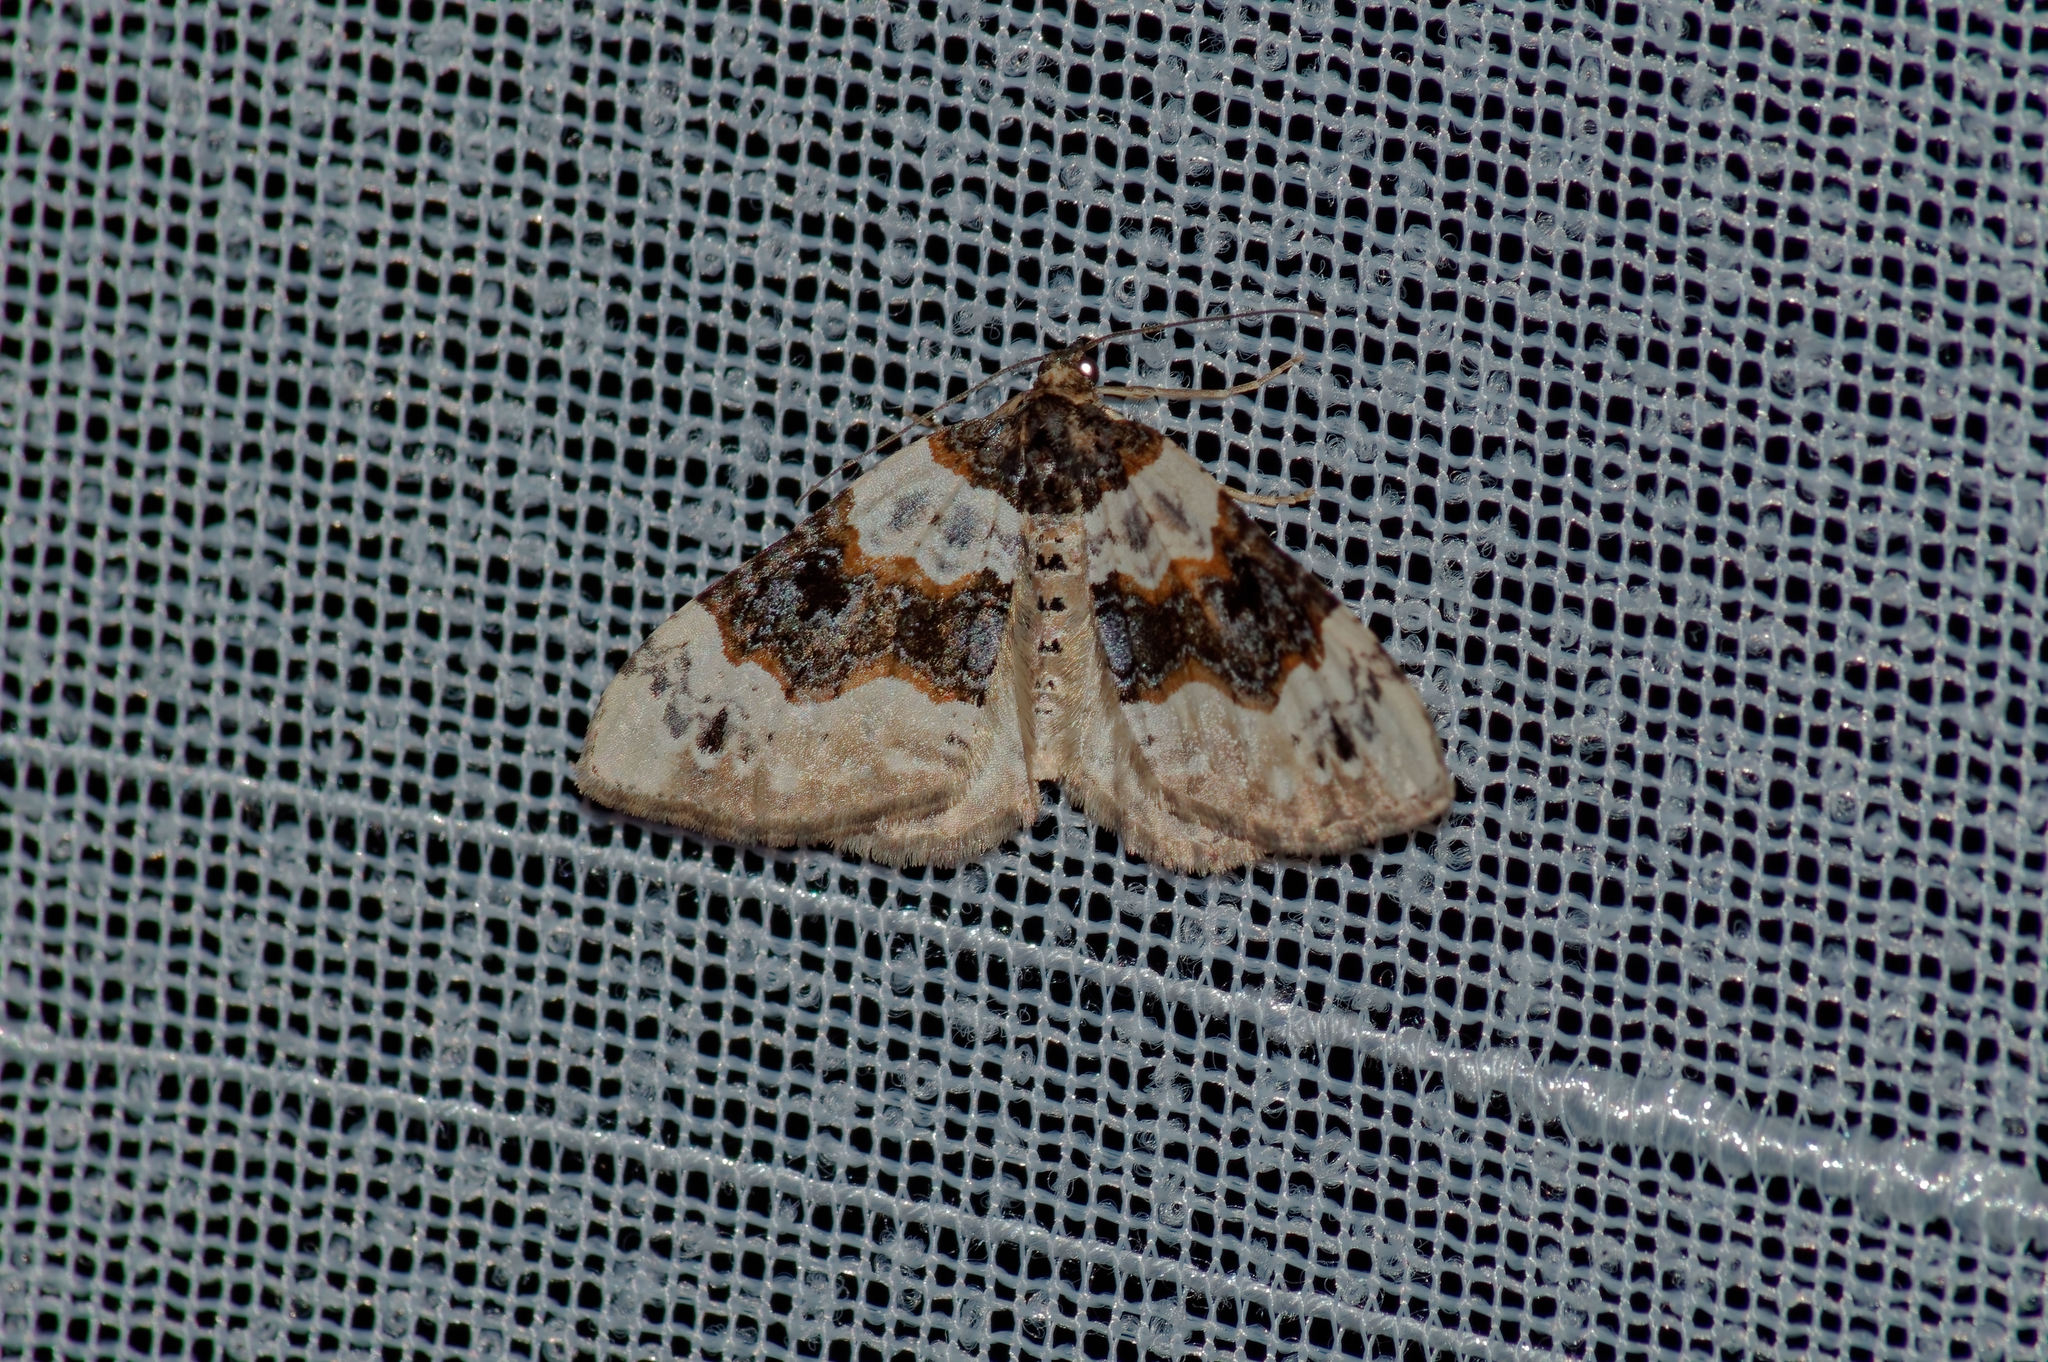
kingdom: Animalia
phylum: Arthropoda
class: Insecta
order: Lepidoptera
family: Geometridae
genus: Cosmorhoe
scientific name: Cosmorhoe ocellata
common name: Purple bar
